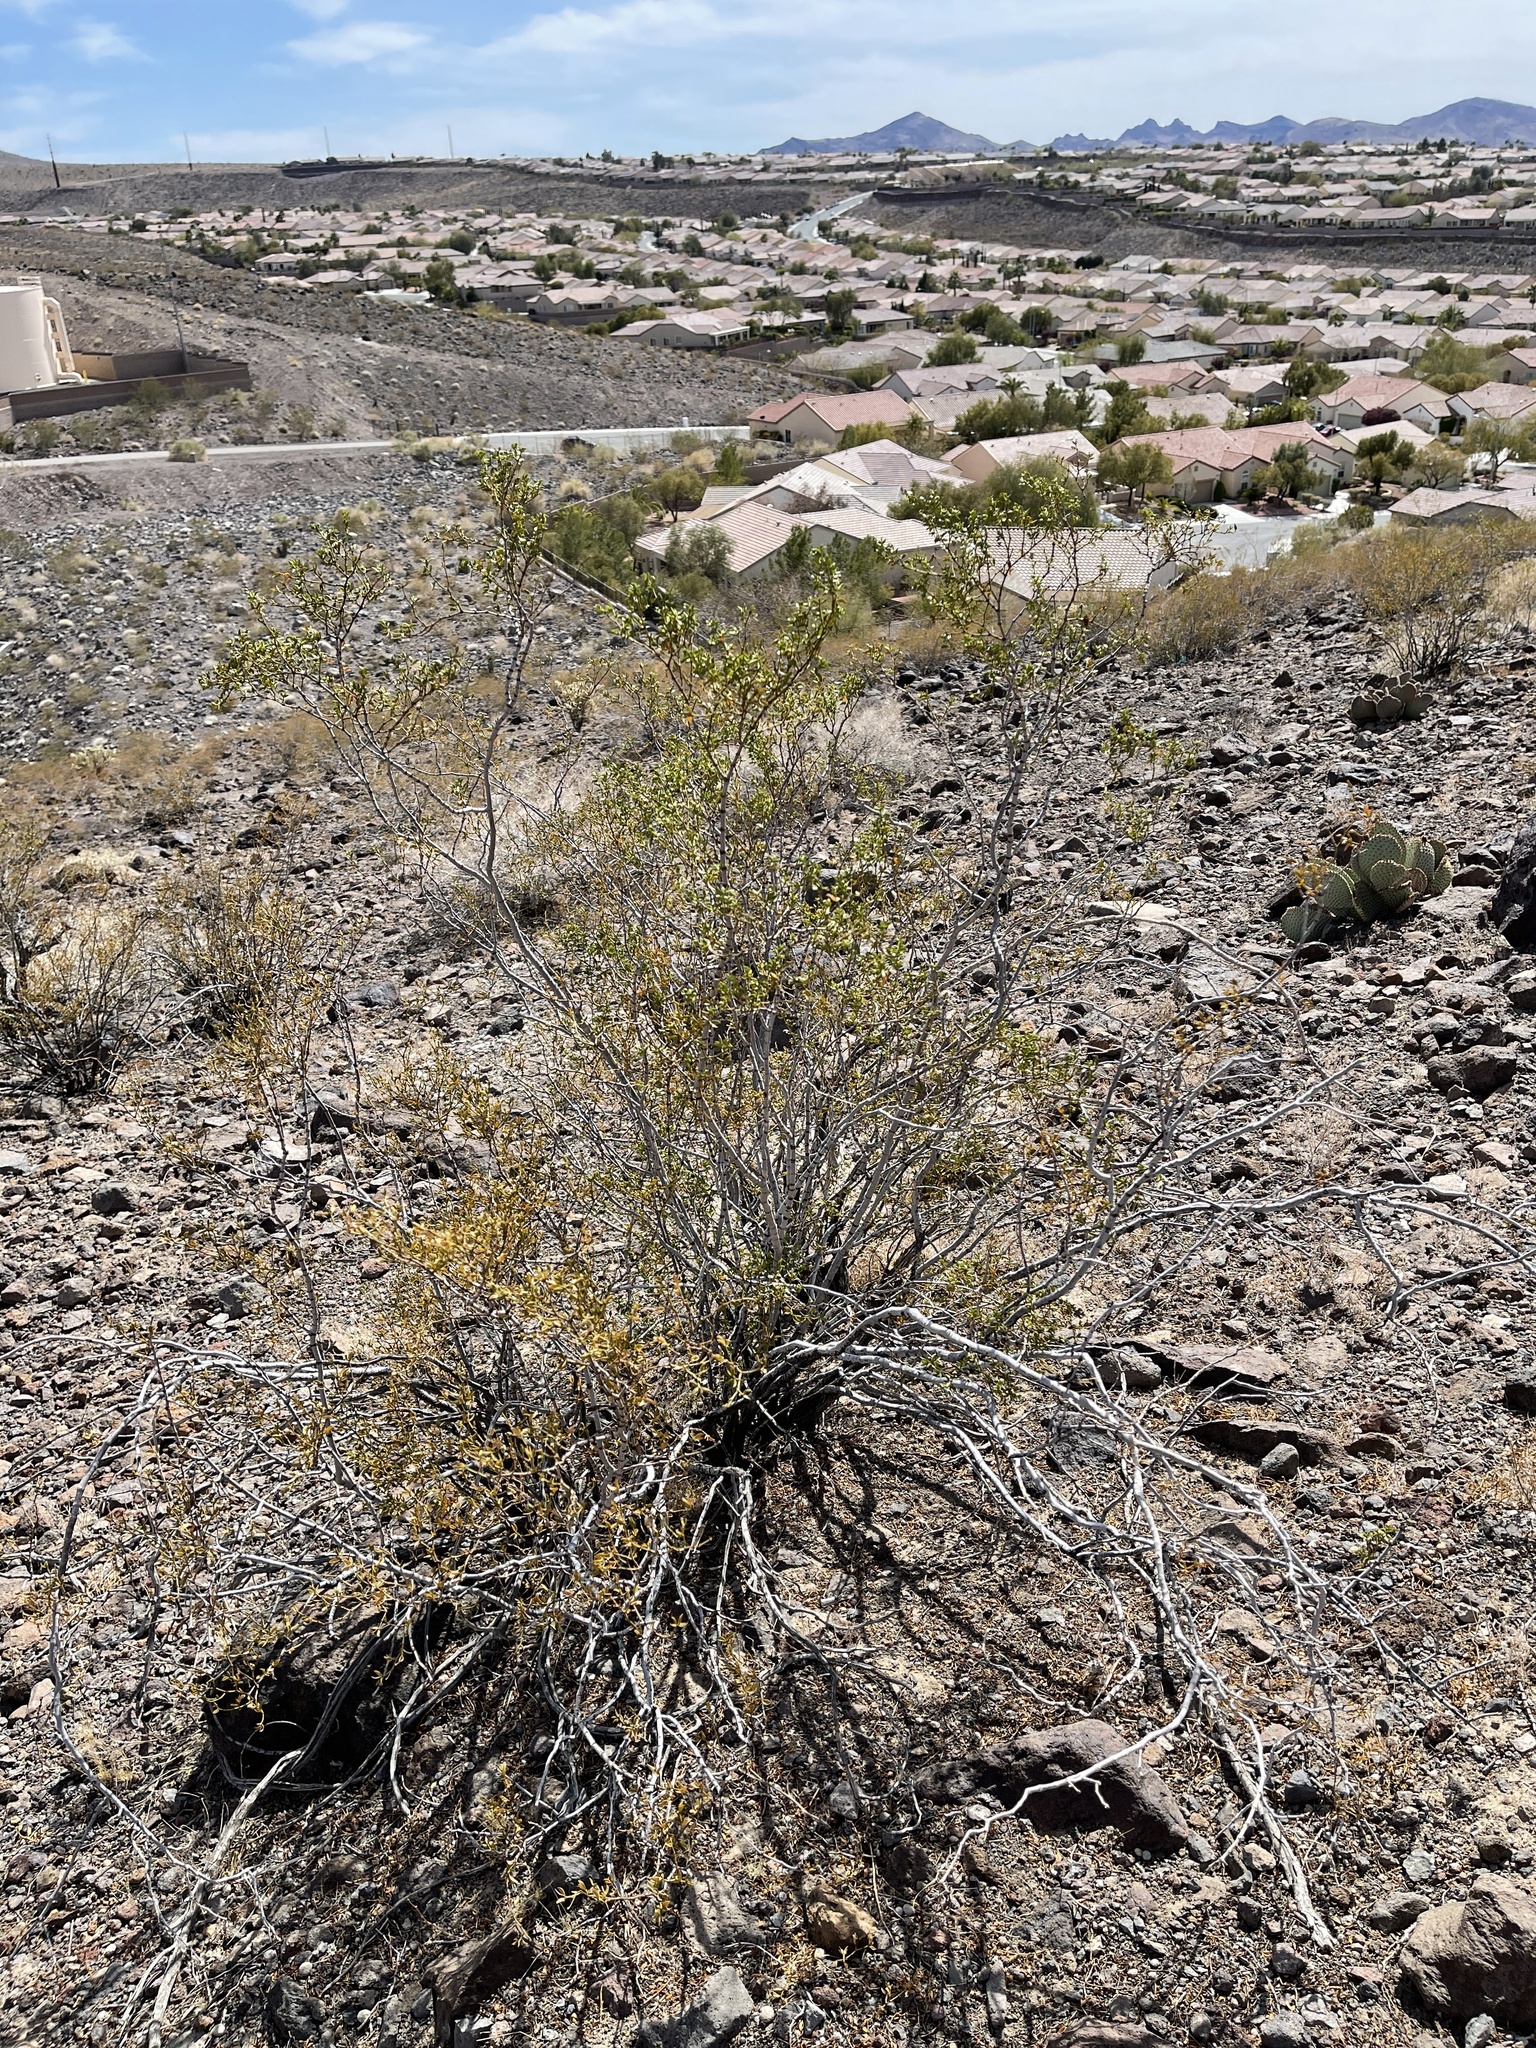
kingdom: Plantae
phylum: Tracheophyta
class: Magnoliopsida
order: Zygophyllales
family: Zygophyllaceae
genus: Larrea
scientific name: Larrea tridentata
